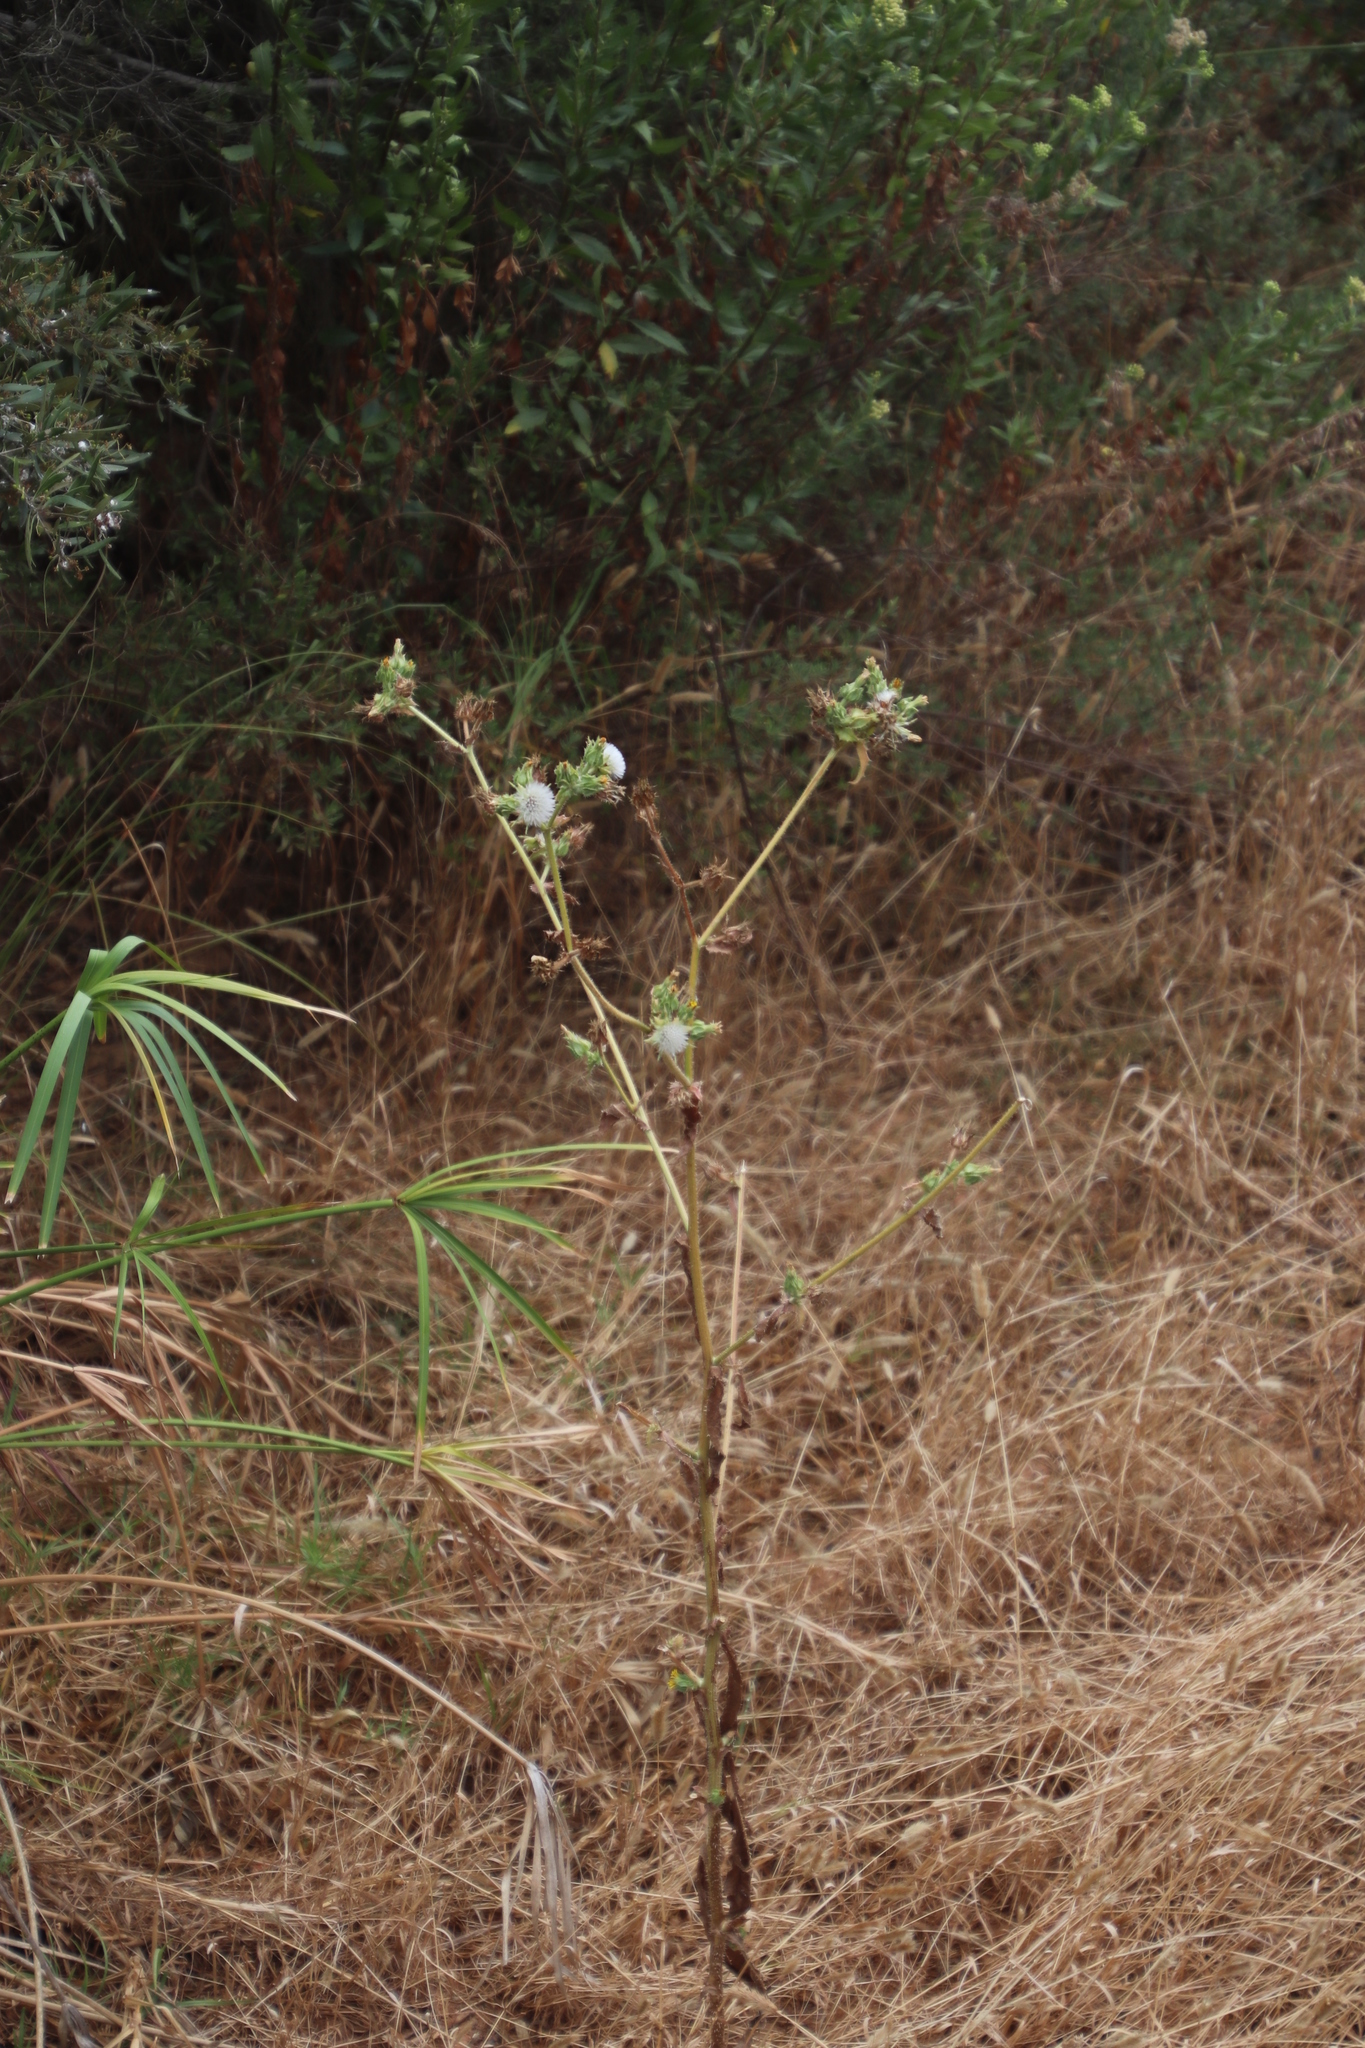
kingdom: Plantae
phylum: Tracheophyta
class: Magnoliopsida
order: Asterales
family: Asteraceae
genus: Helminthotheca
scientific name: Helminthotheca echioides
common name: Ox-tongue
